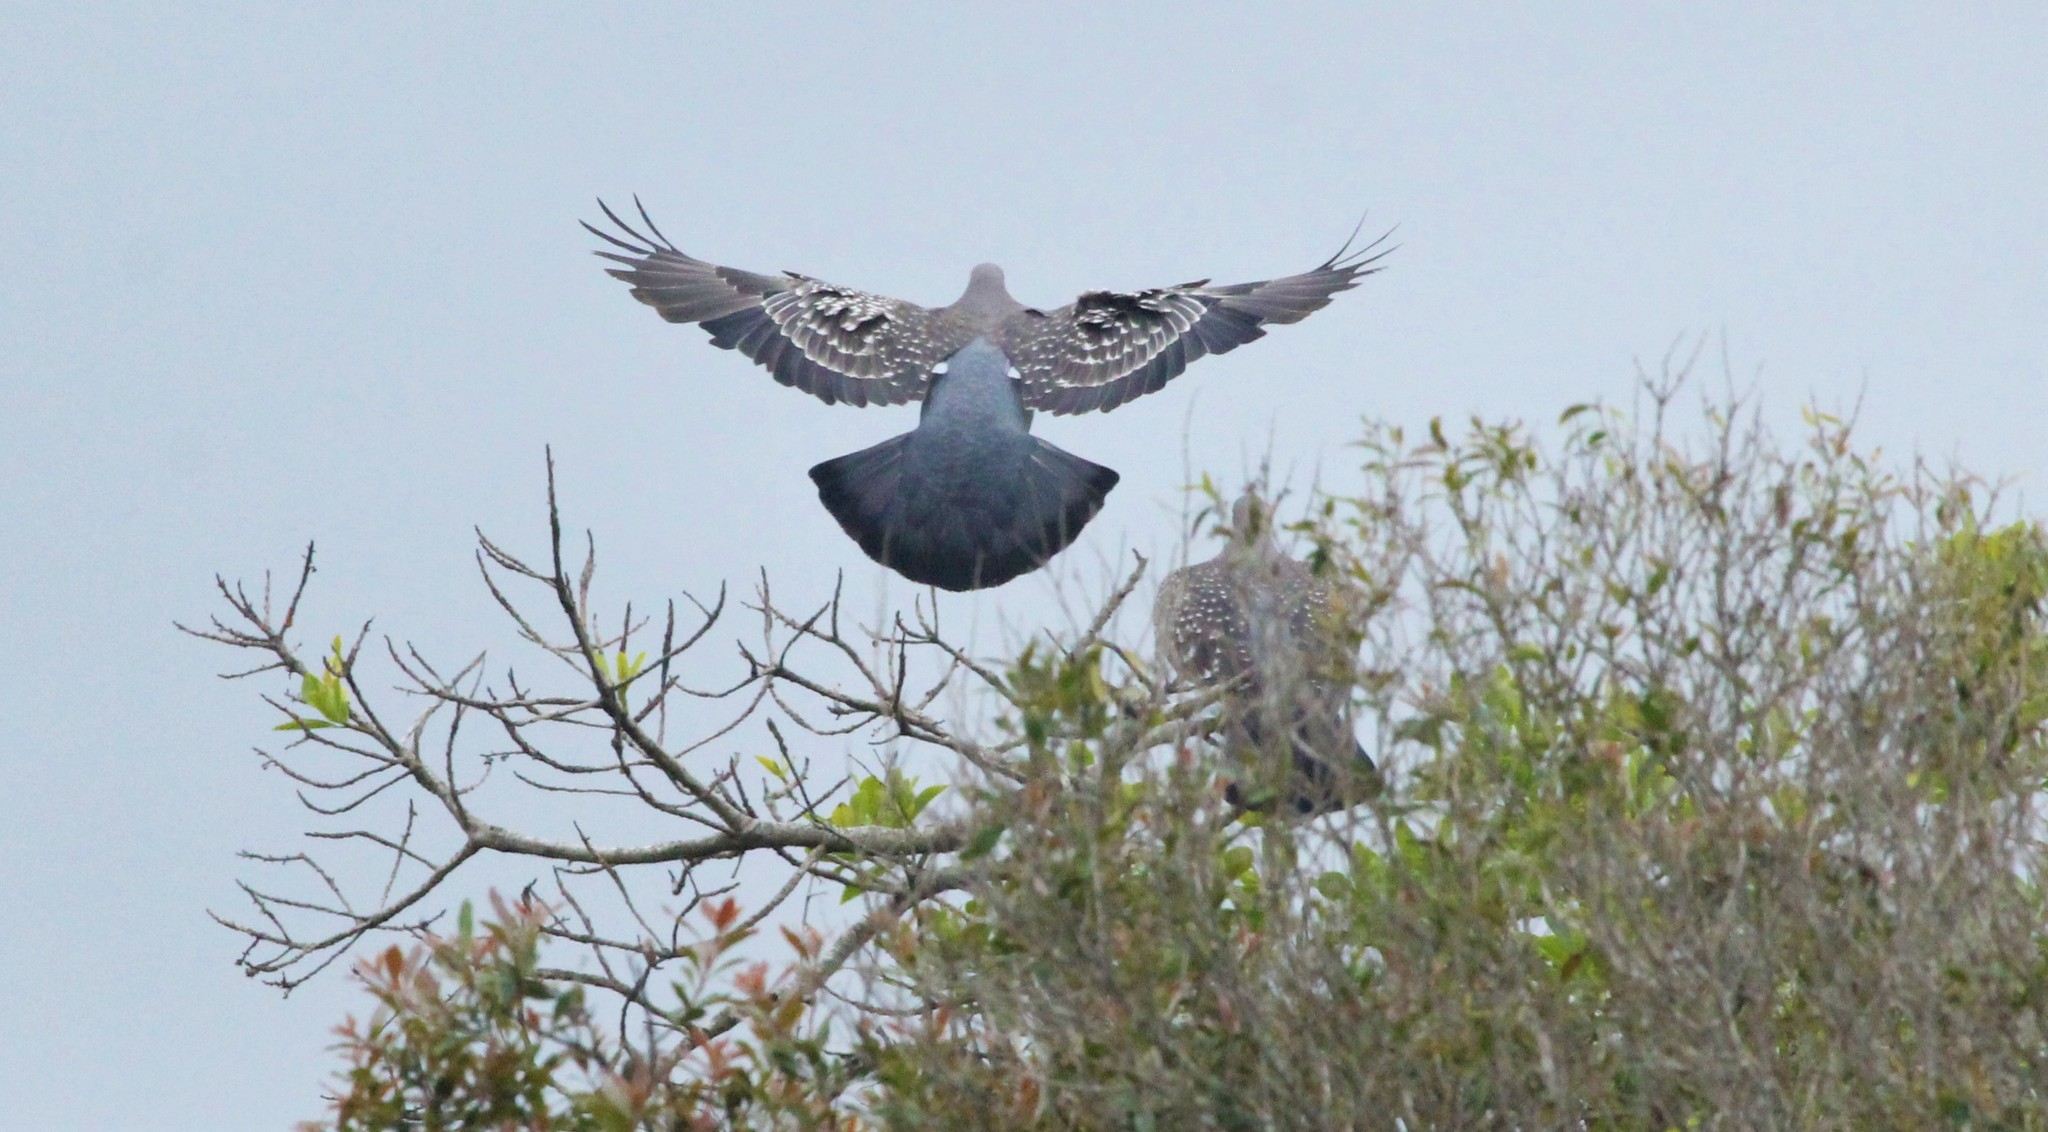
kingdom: Animalia
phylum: Chordata
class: Aves
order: Columbiformes
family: Columbidae
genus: Patagioenas
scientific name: Patagioenas maculosa
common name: Spot-winged pigeon
